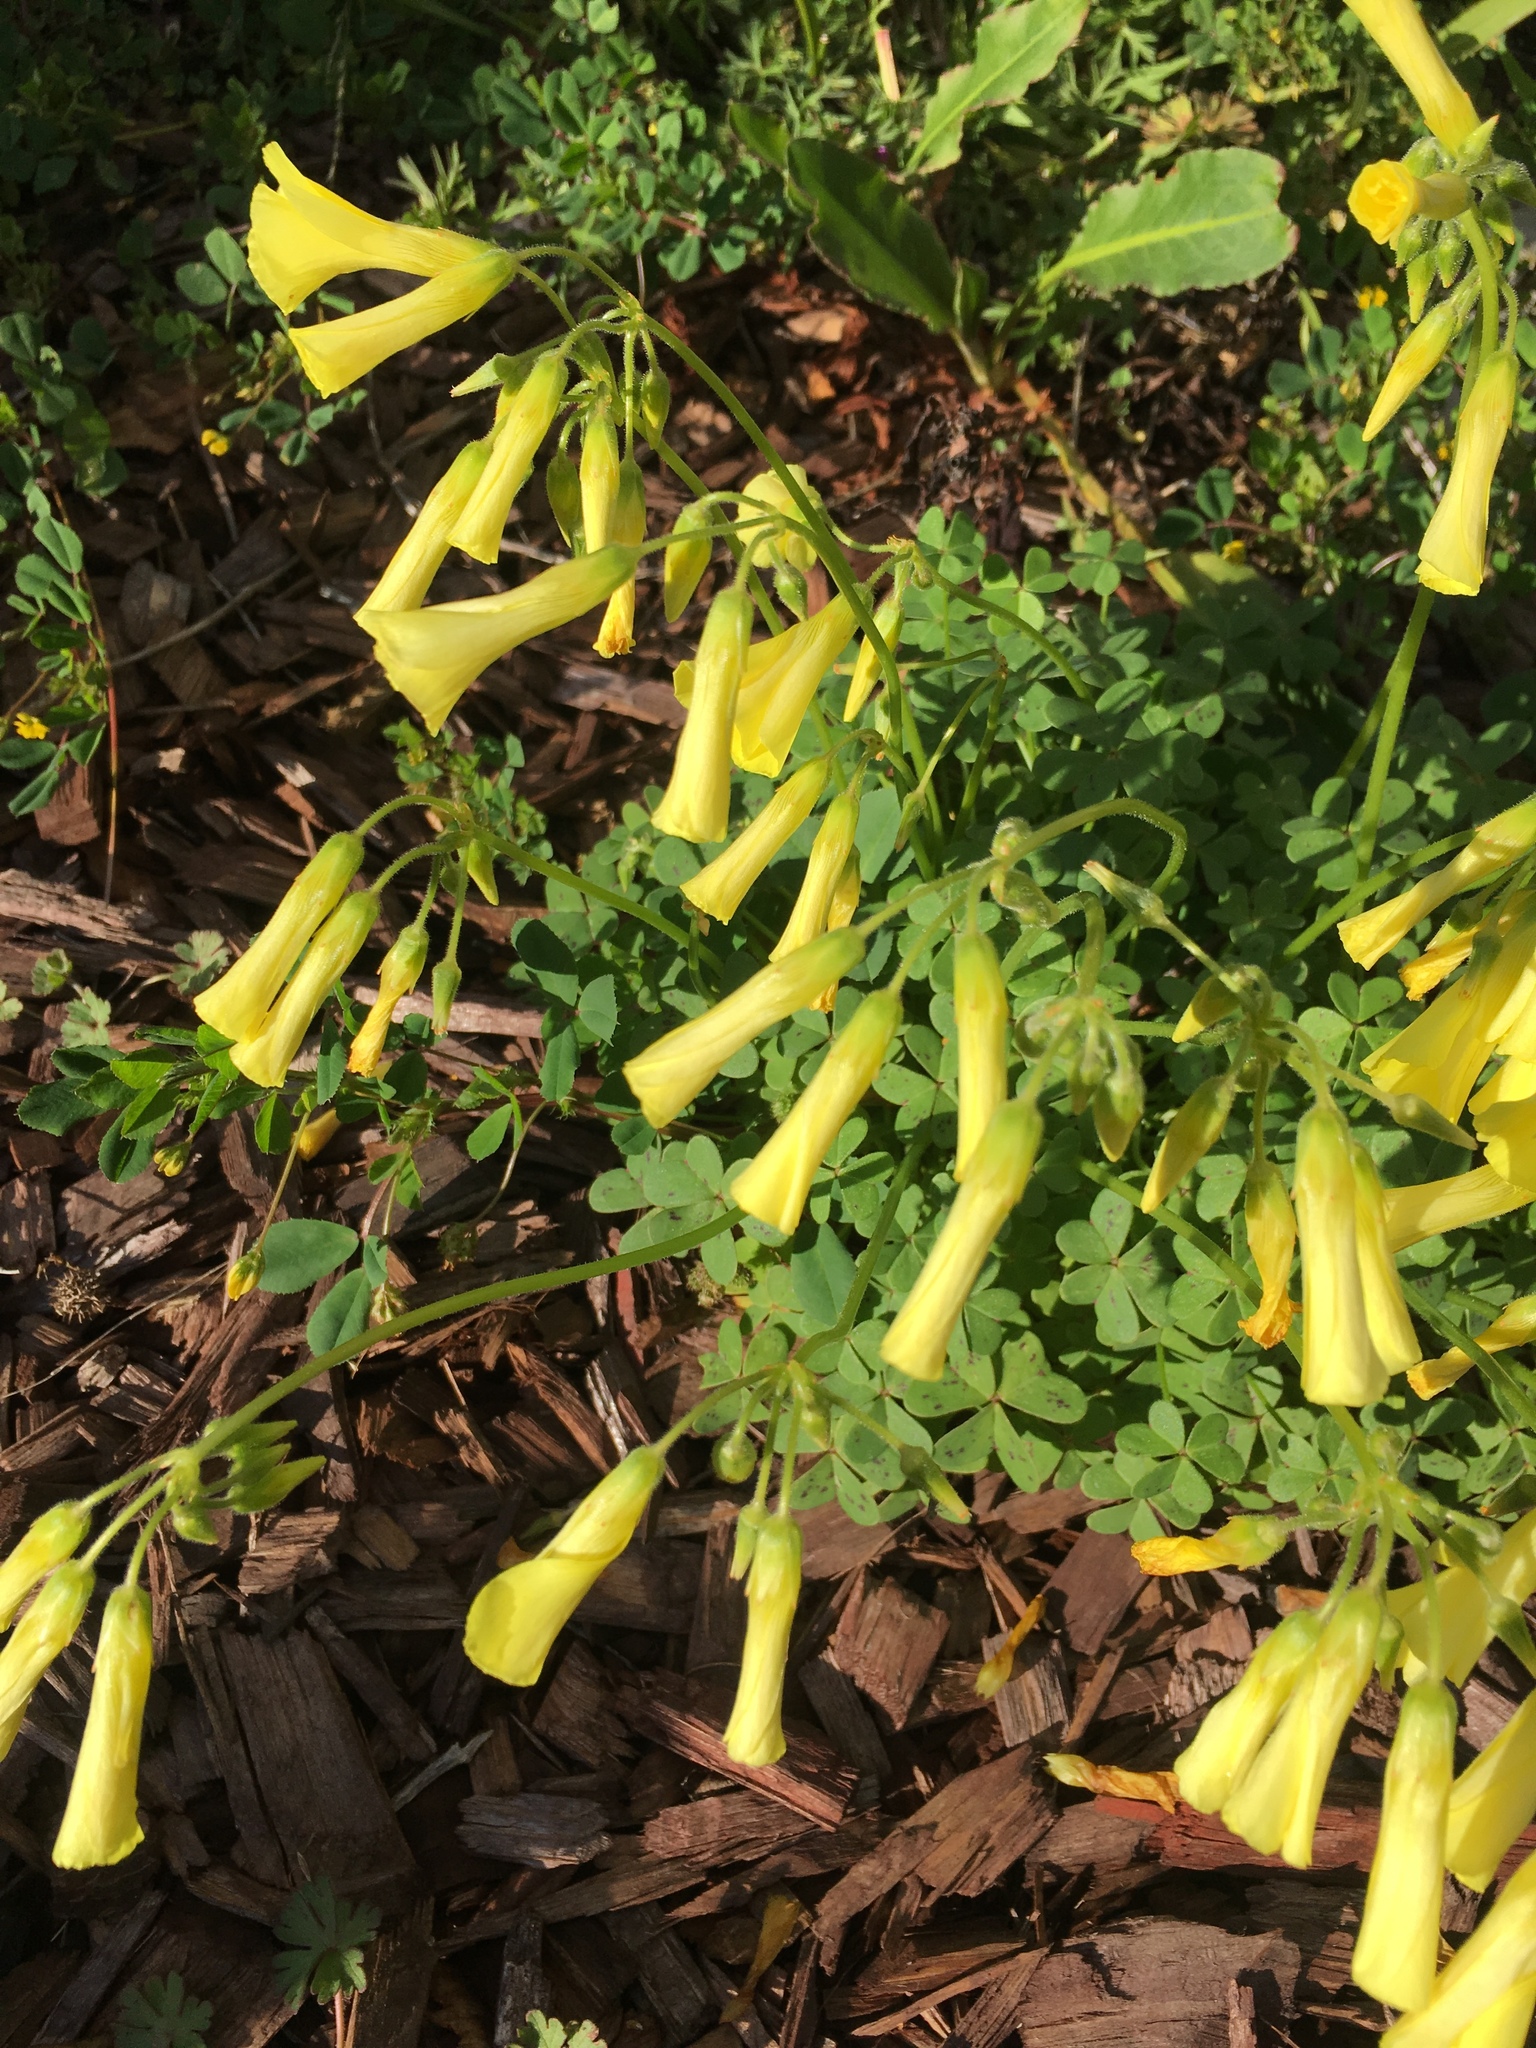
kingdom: Plantae
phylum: Tracheophyta
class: Magnoliopsida
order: Oxalidales
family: Oxalidaceae
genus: Oxalis
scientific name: Oxalis pes-caprae
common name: Bermuda-buttercup
